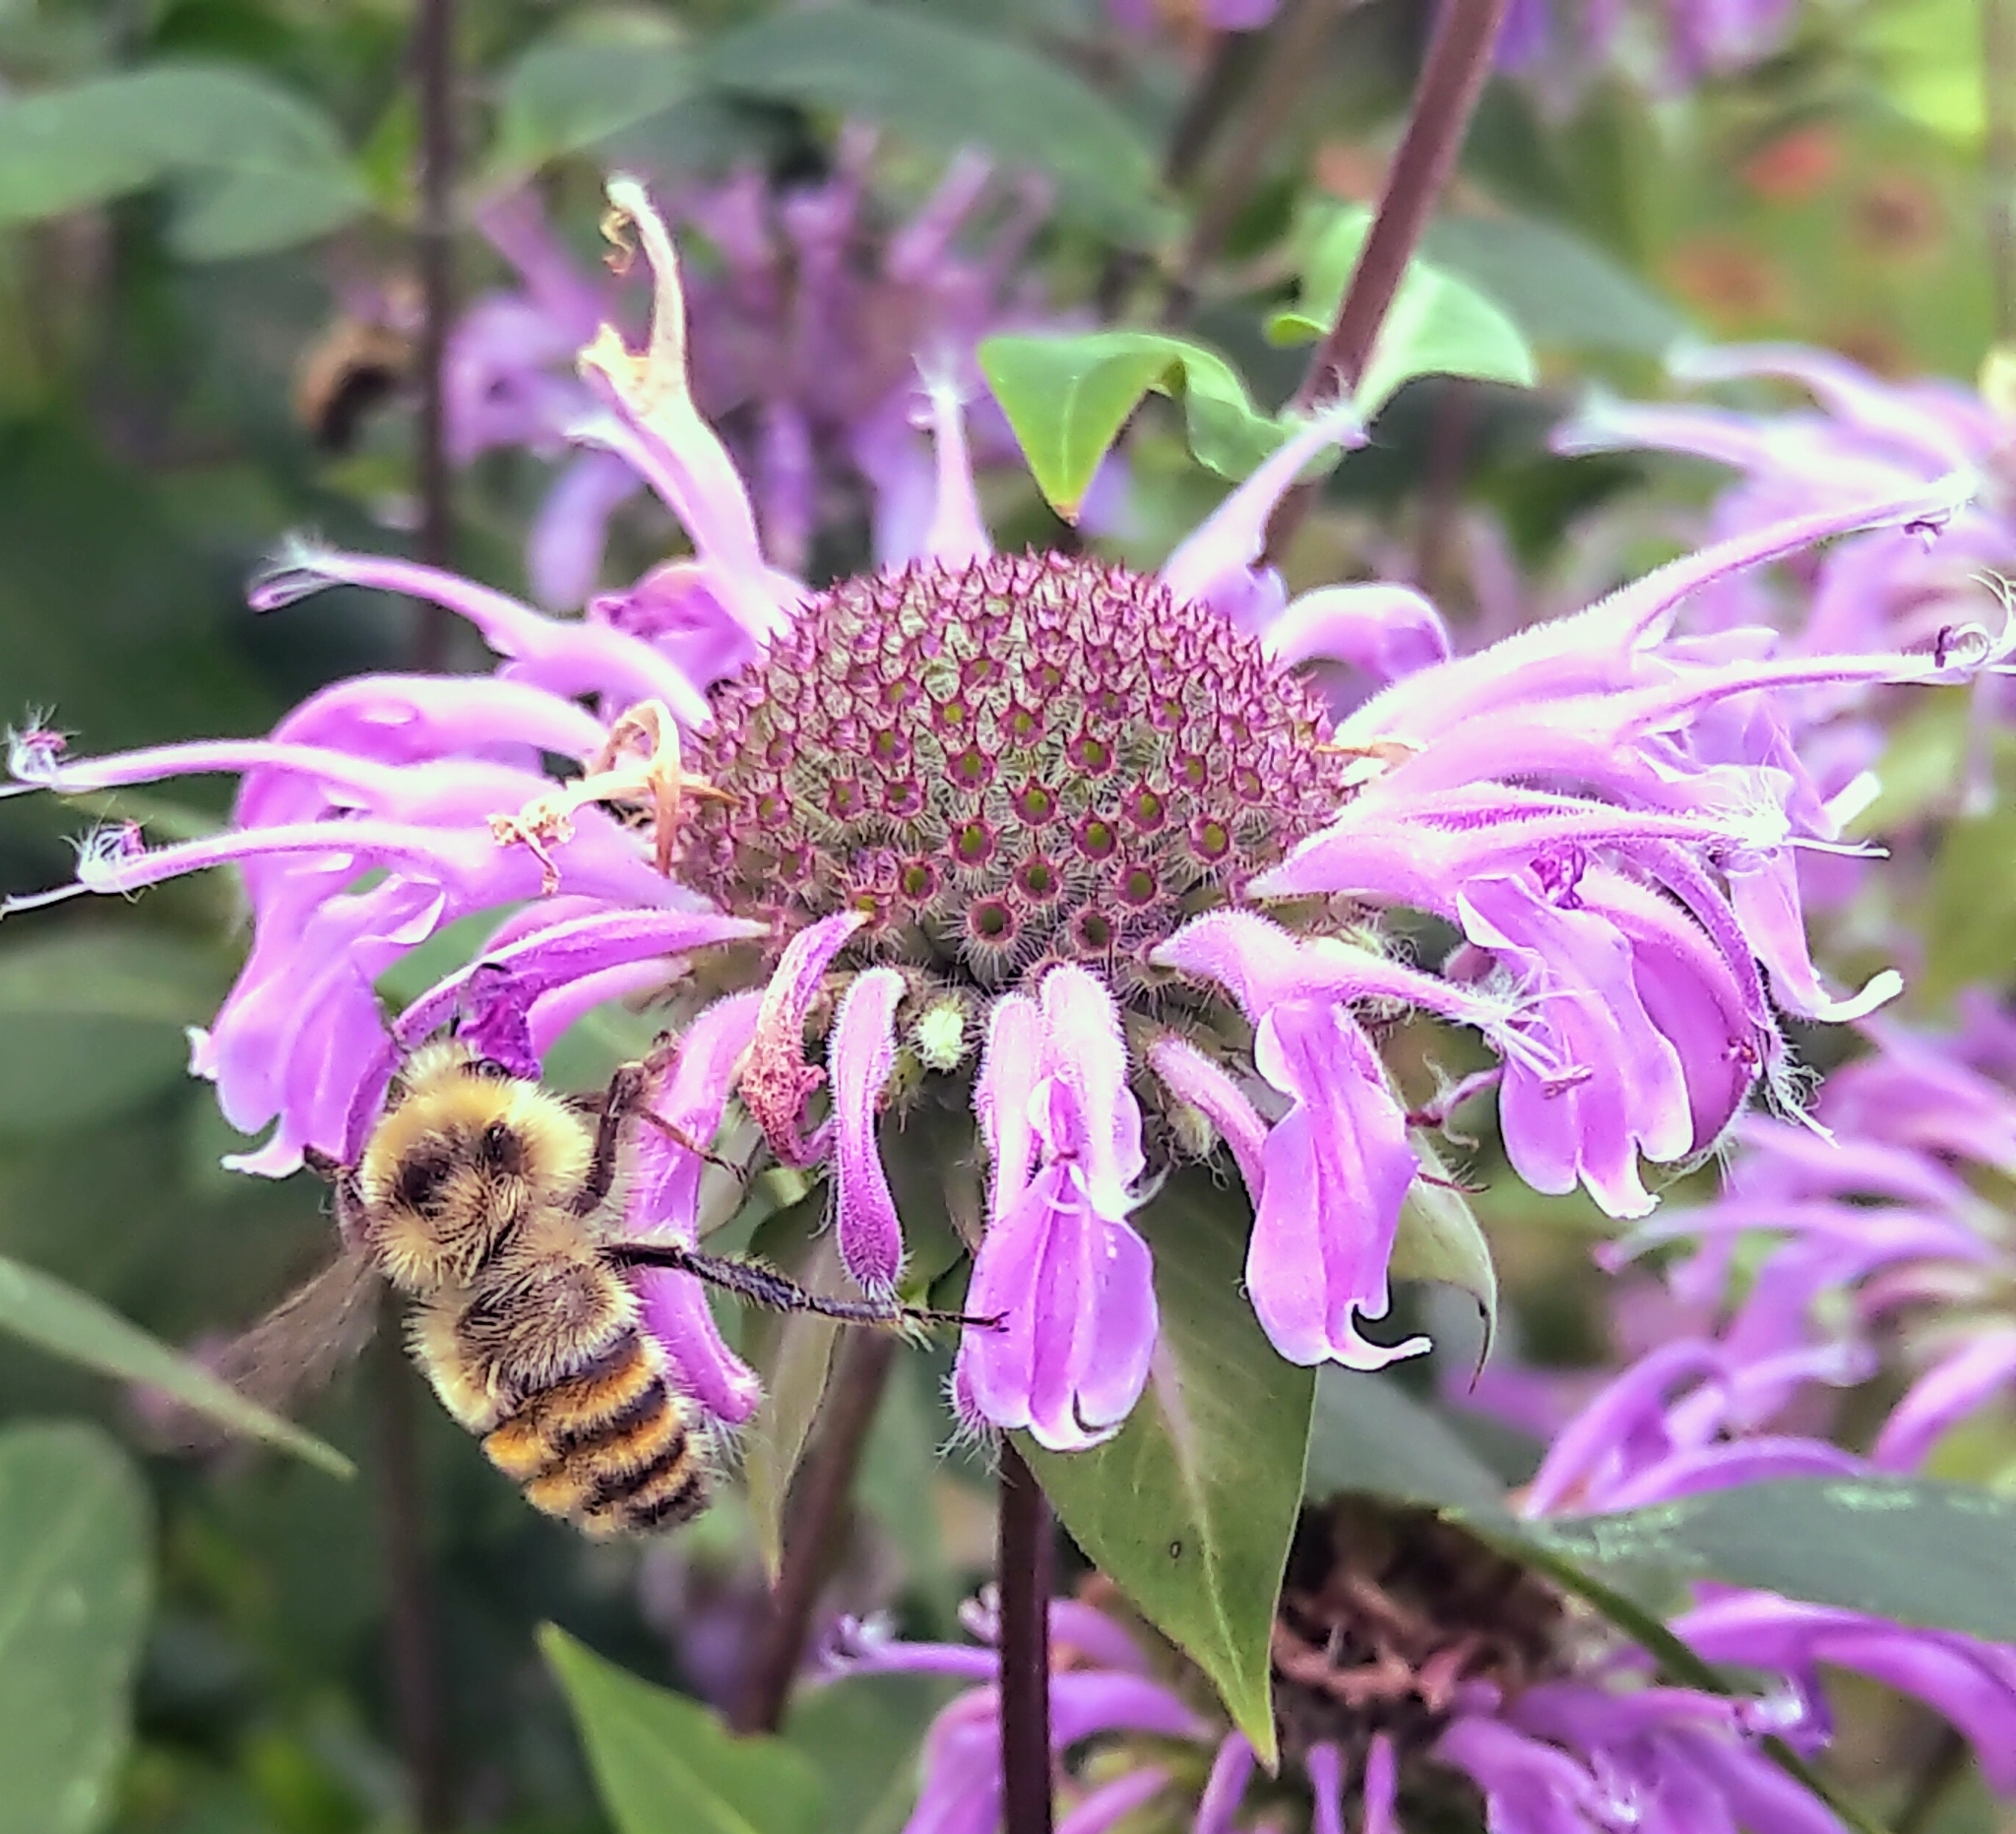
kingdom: Animalia
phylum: Arthropoda
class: Insecta
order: Hymenoptera
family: Apidae
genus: Bombus
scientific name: Bombus centralis
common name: Central bumble bee
